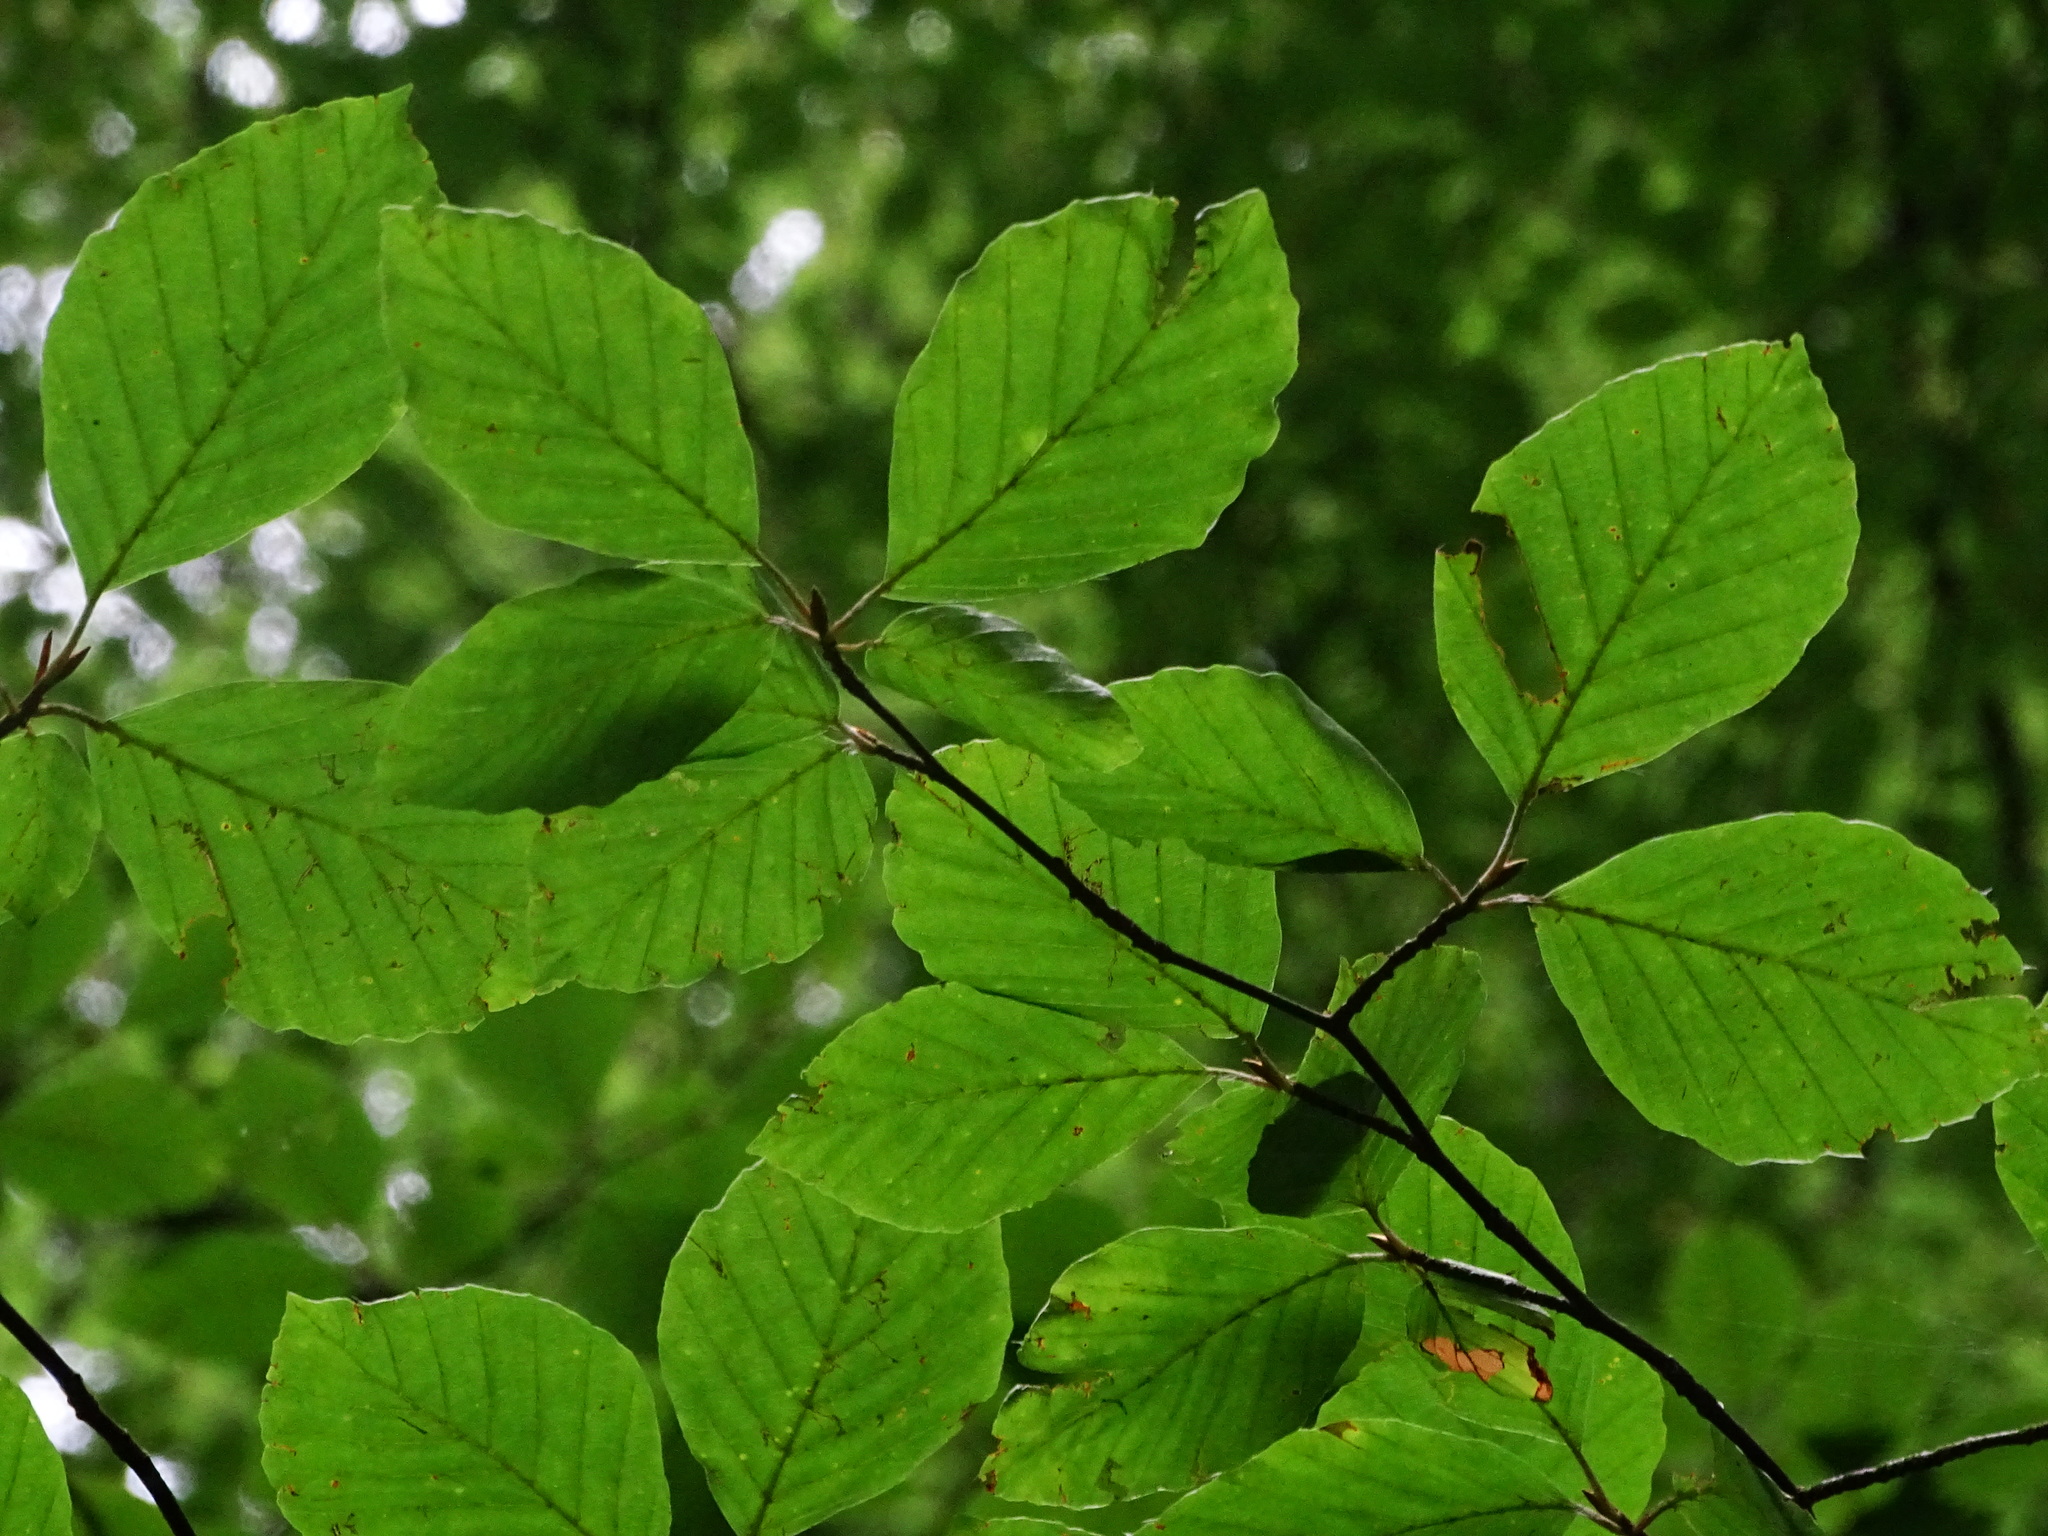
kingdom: Plantae
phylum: Tracheophyta
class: Magnoliopsida
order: Fagales
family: Fagaceae
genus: Fagus
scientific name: Fagus sylvatica
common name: Beech
